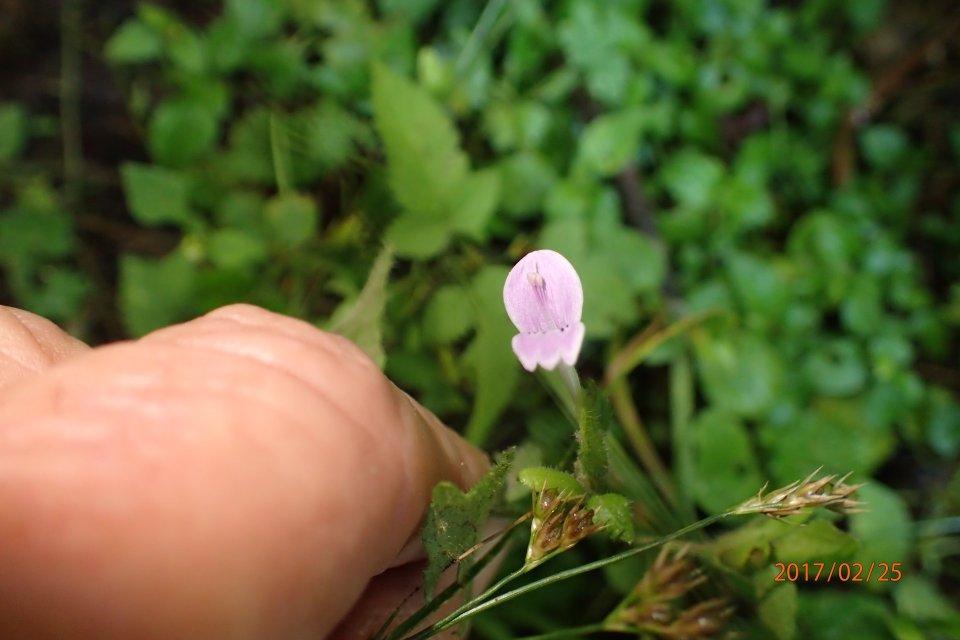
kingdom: Plantae
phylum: Tracheophyta
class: Magnoliopsida
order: Lamiales
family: Acanthaceae
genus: Hypoestes
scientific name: Hypoestes triflora
